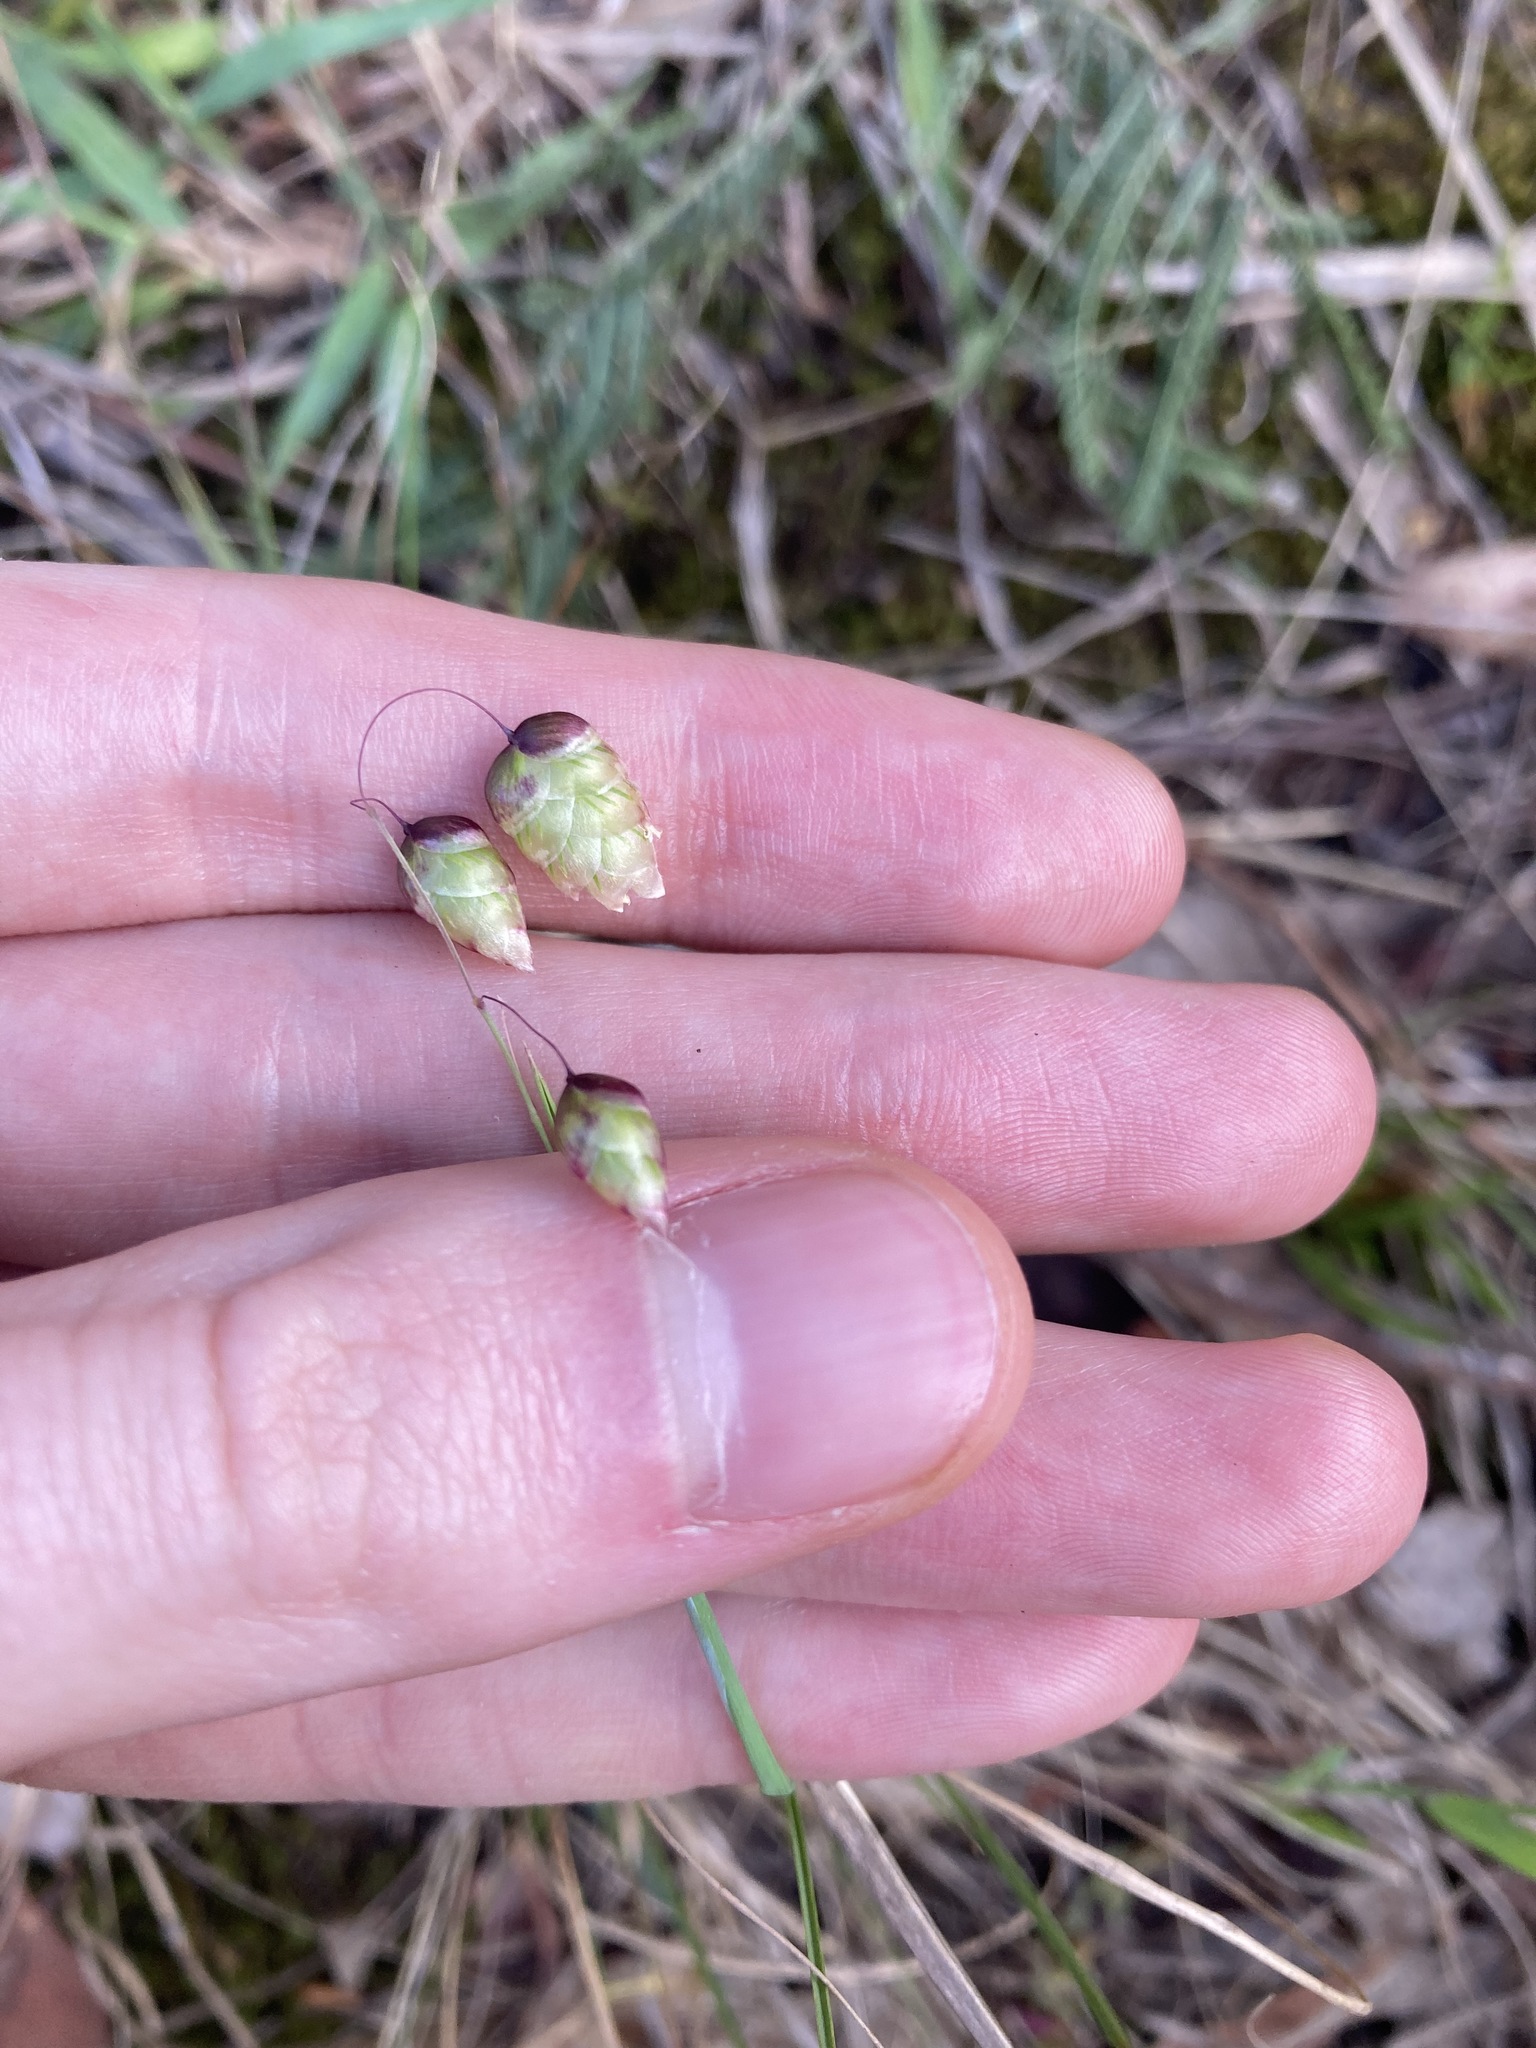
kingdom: Plantae
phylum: Tracheophyta
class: Liliopsida
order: Poales
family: Poaceae
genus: Briza
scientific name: Briza maxima
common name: Big quakinggrass
